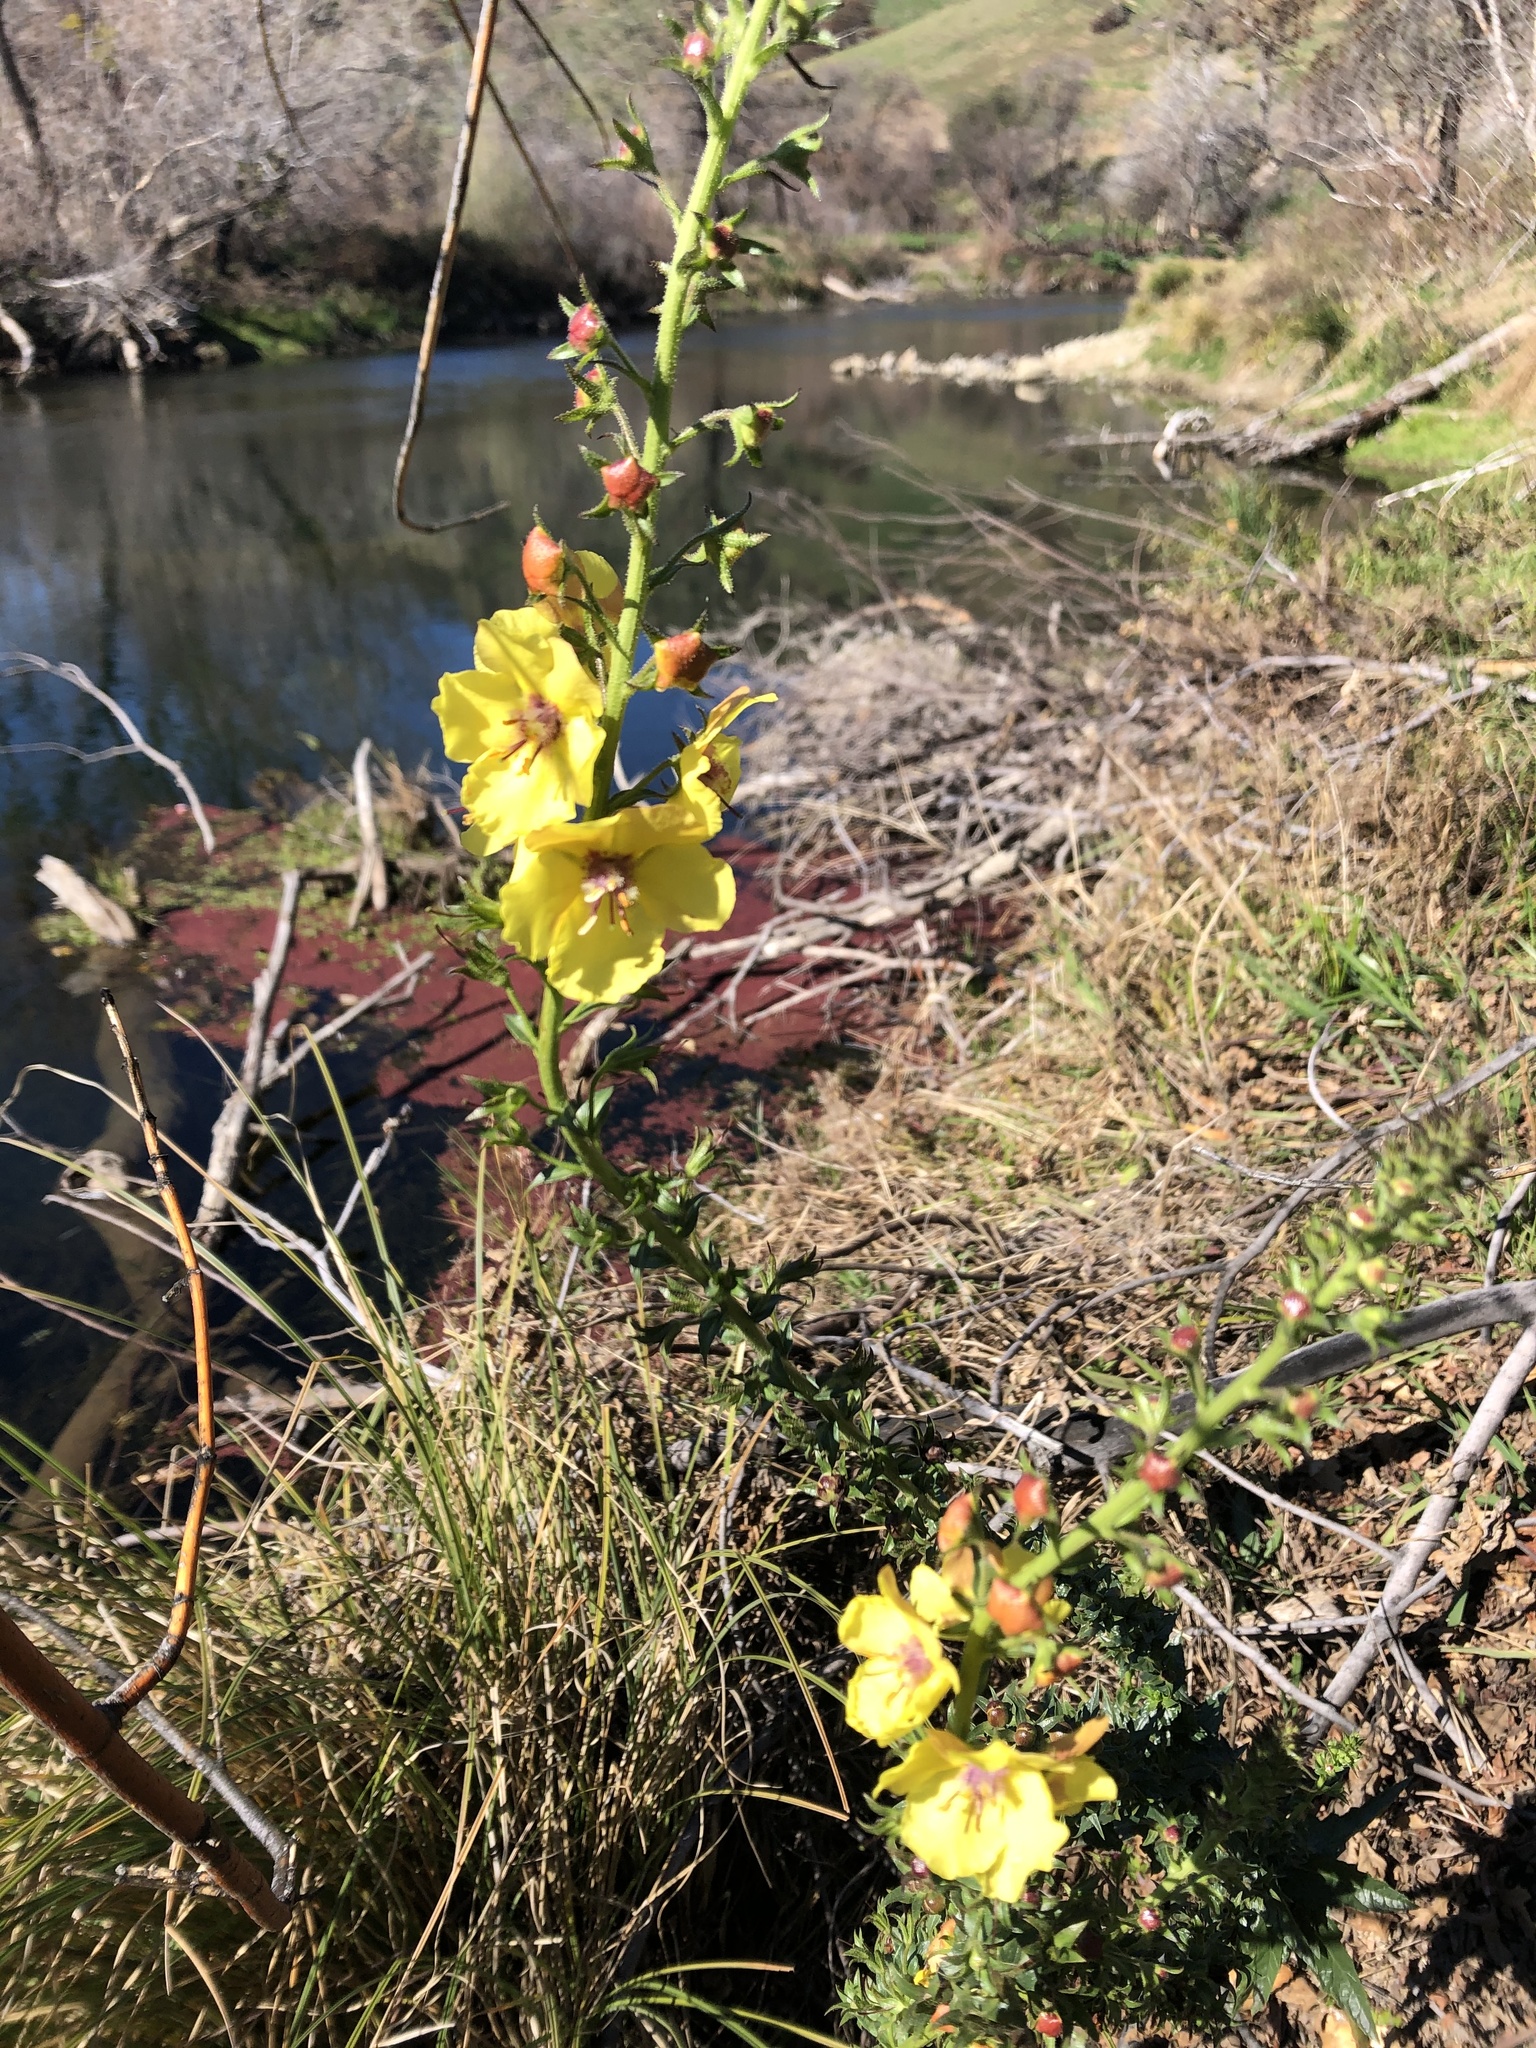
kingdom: Plantae
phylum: Tracheophyta
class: Magnoliopsida
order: Lamiales
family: Scrophulariaceae
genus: Verbascum
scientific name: Verbascum blattaria
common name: Moth mullein
